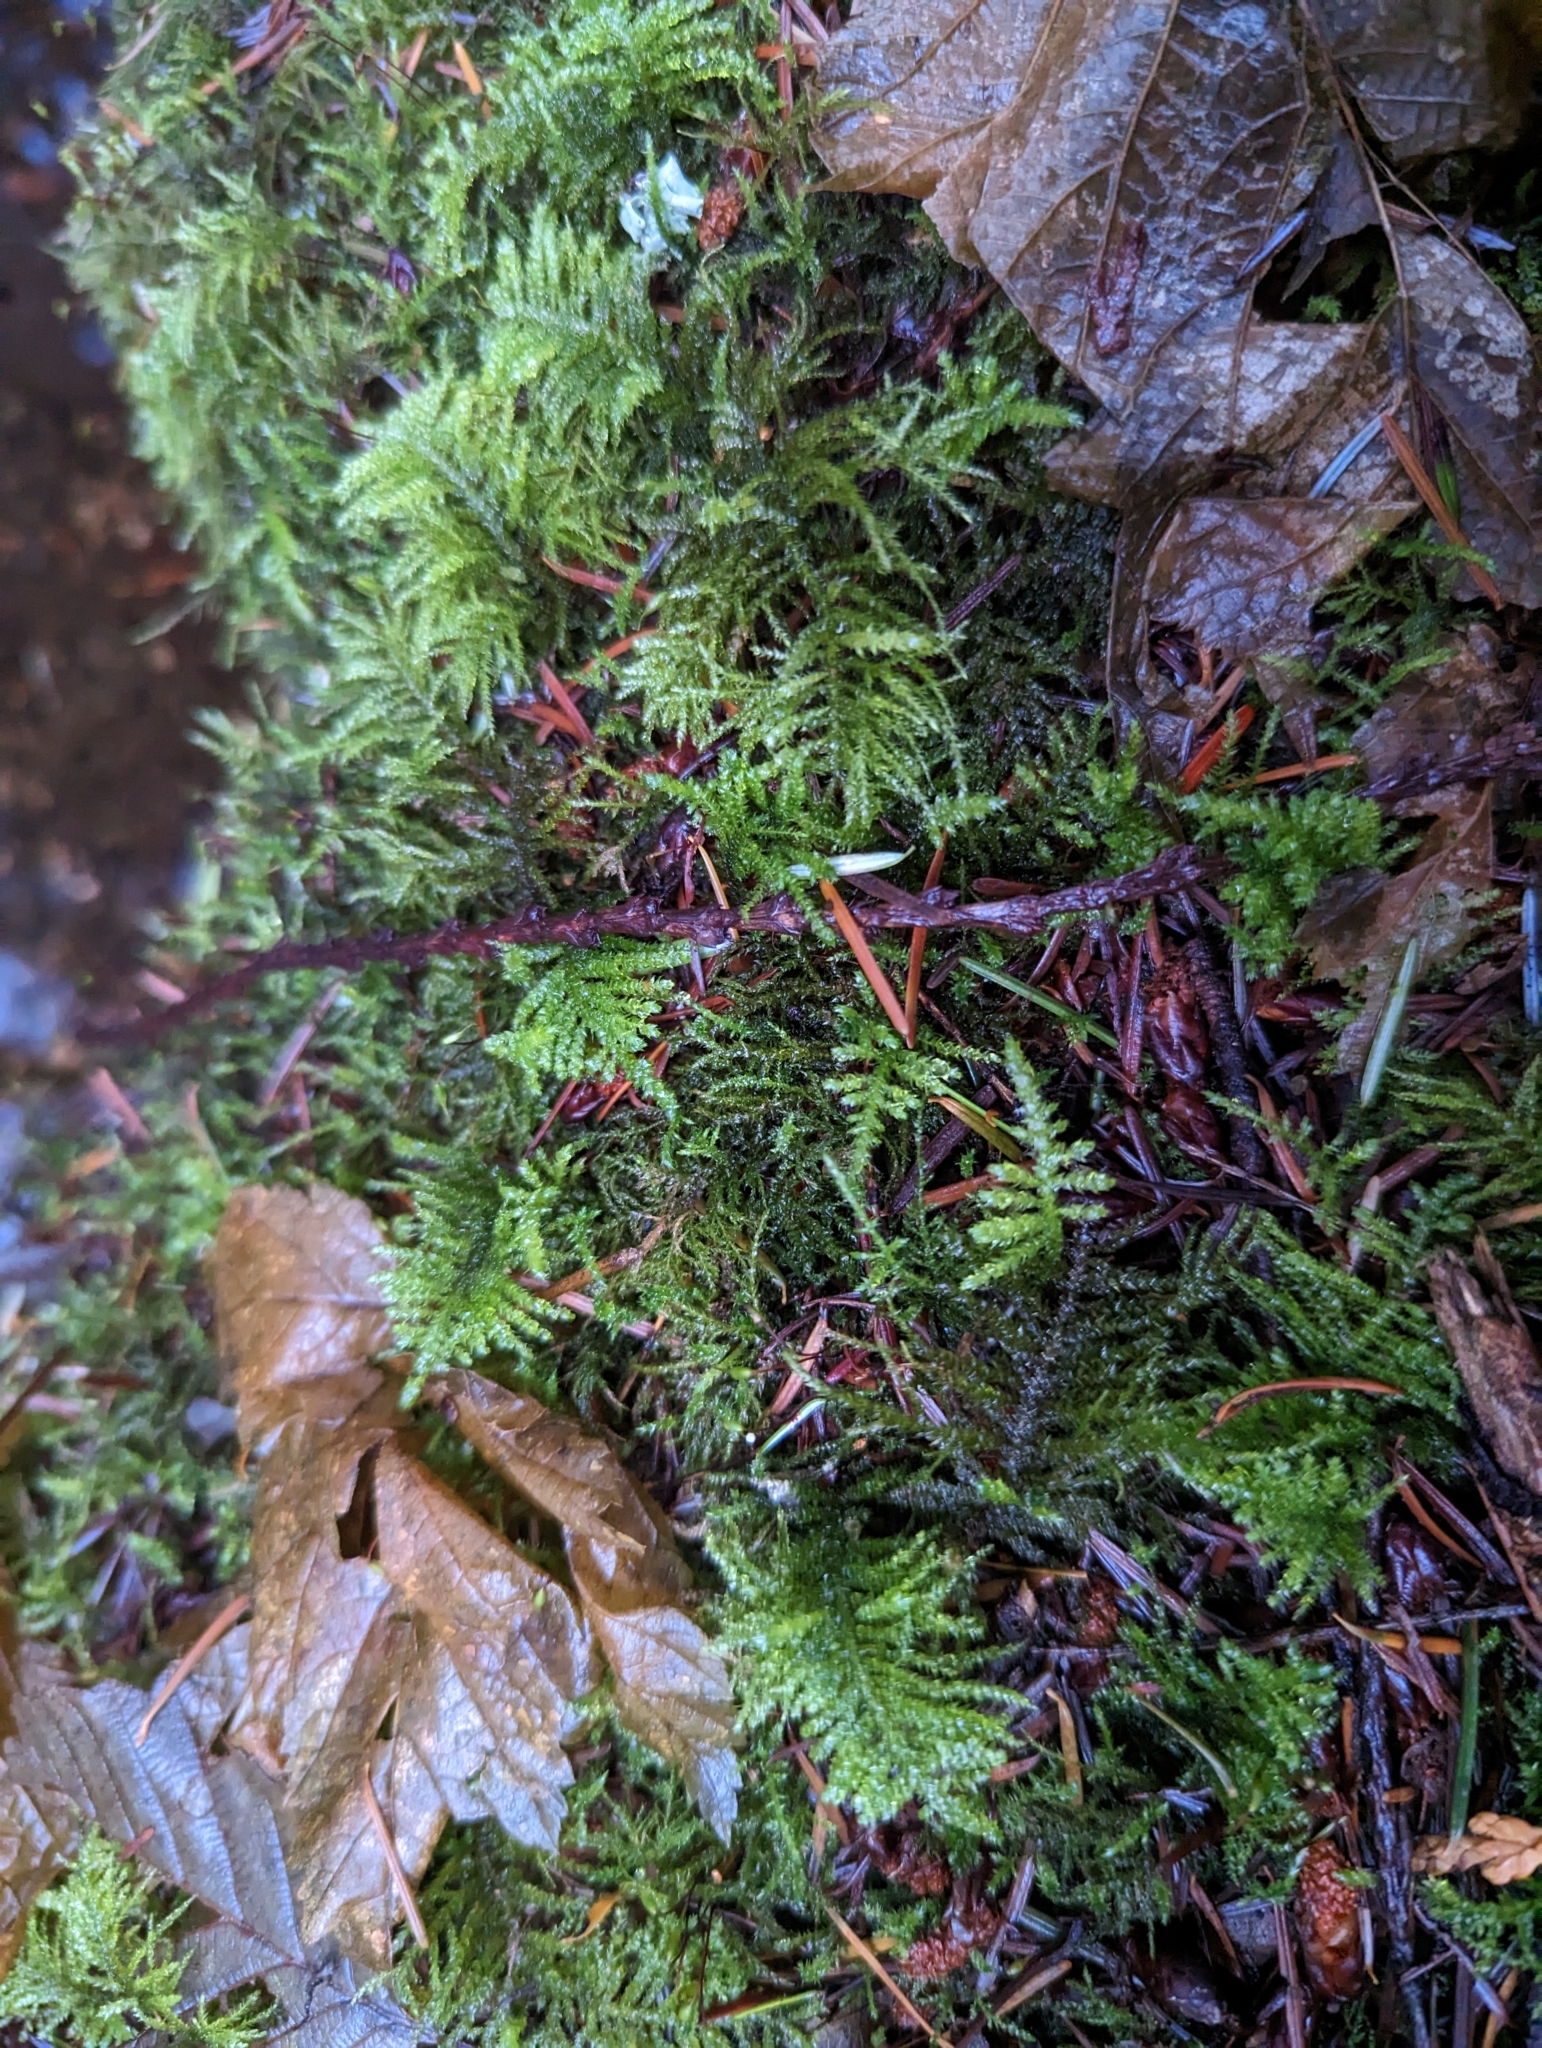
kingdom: Plantae
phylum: Bryophyta
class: Bryopsida
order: Hypnales
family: Brachytheciaceae
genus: Kindbergia
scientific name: Kindbergia oregana
